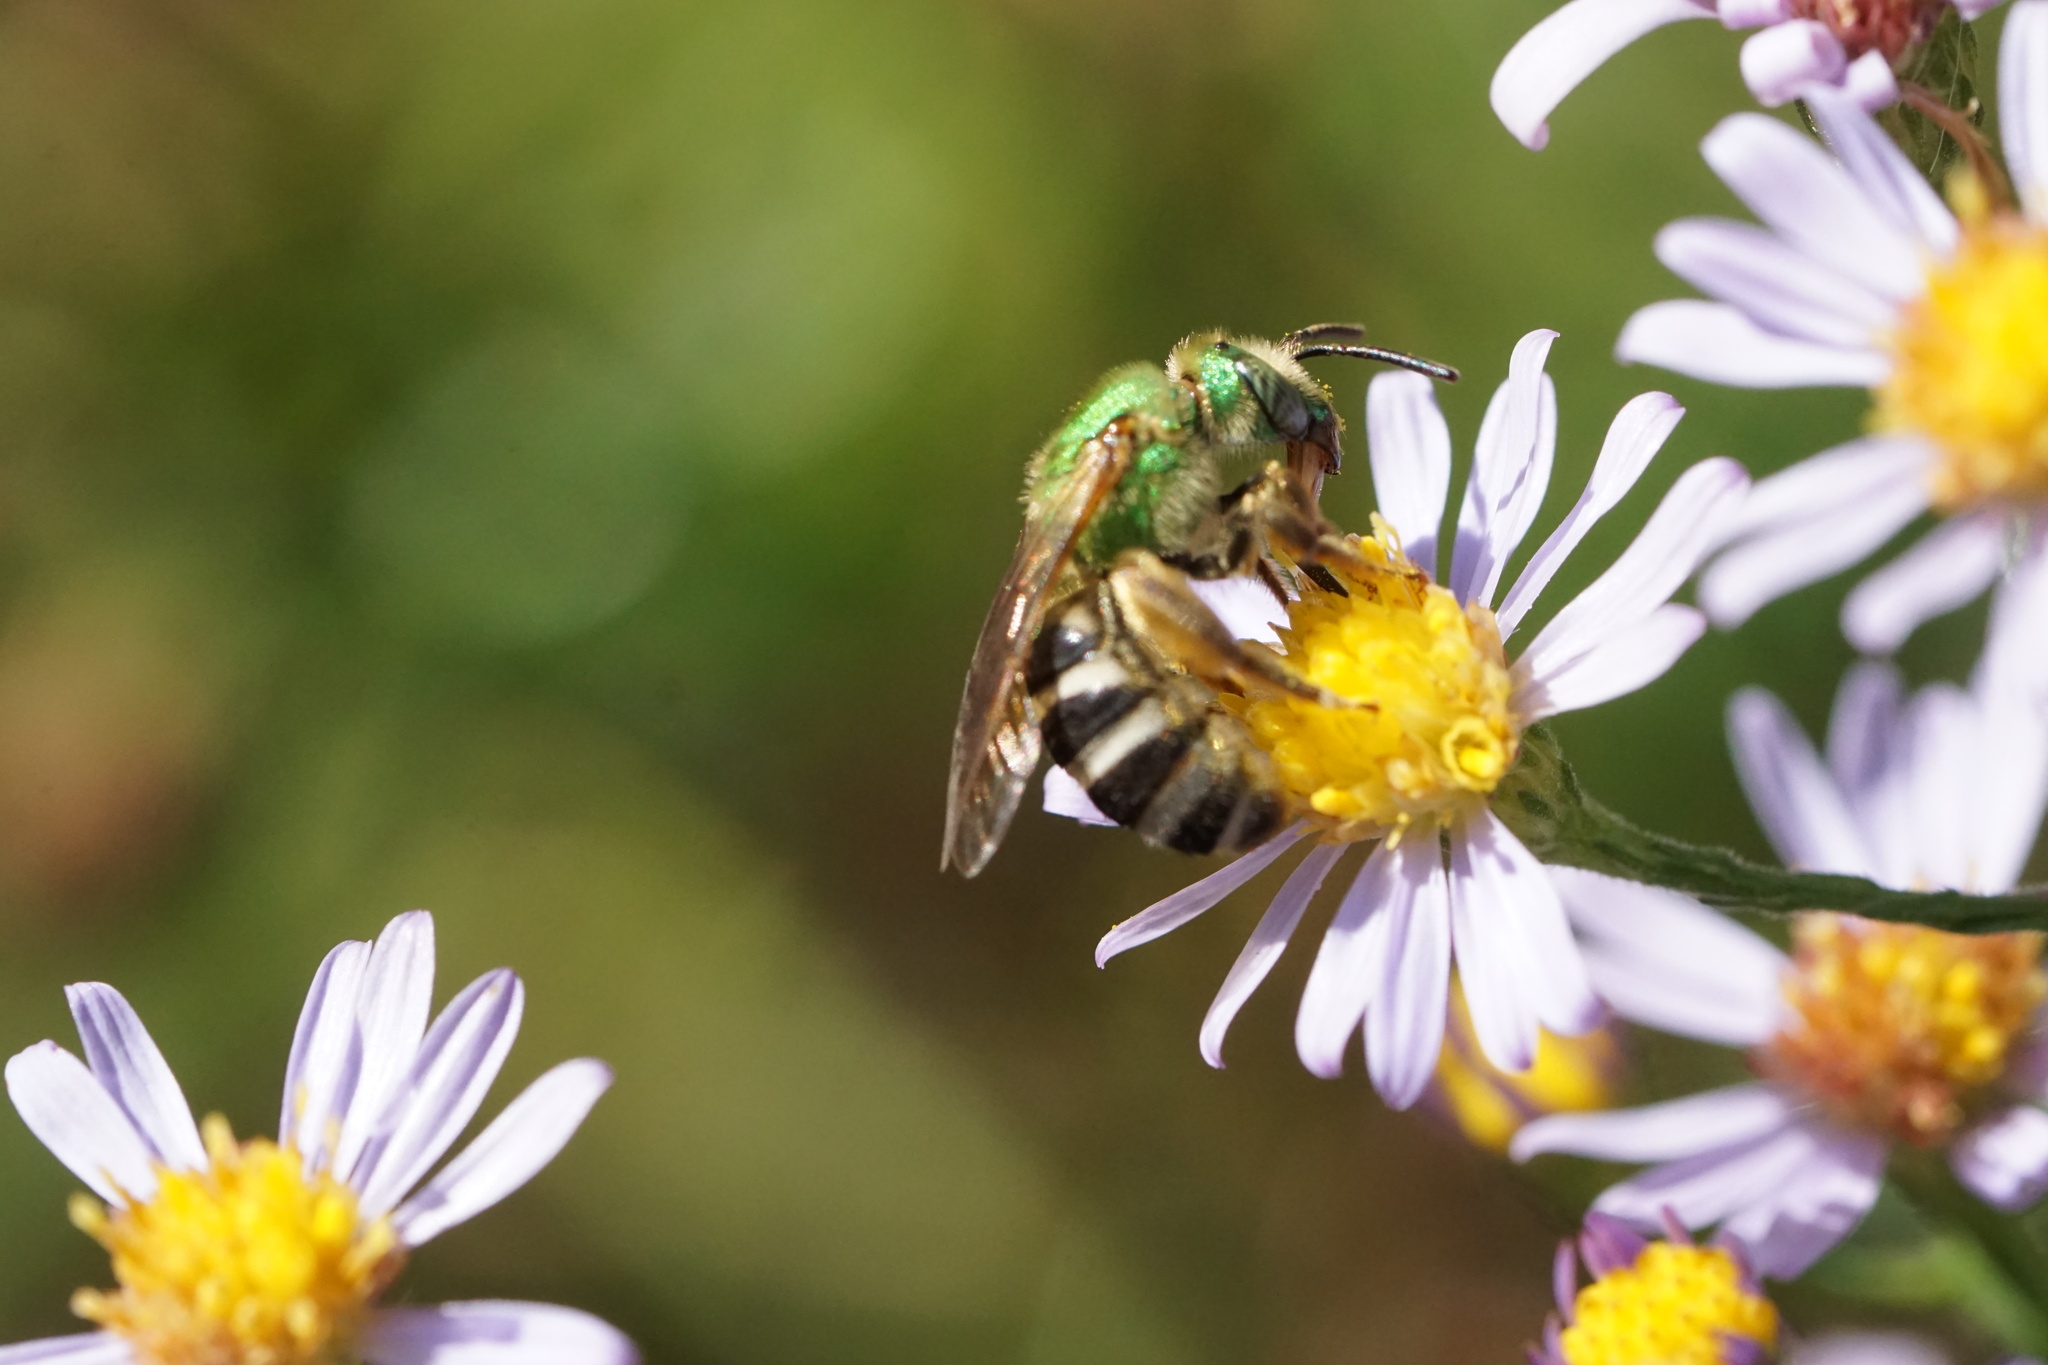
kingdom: Animalia
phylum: Arthropoda
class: Insecta
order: Hymenoptera
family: Halictidae
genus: Agapostemon
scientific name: Agapostemon virescens
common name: Bicolored striped sweat bee
